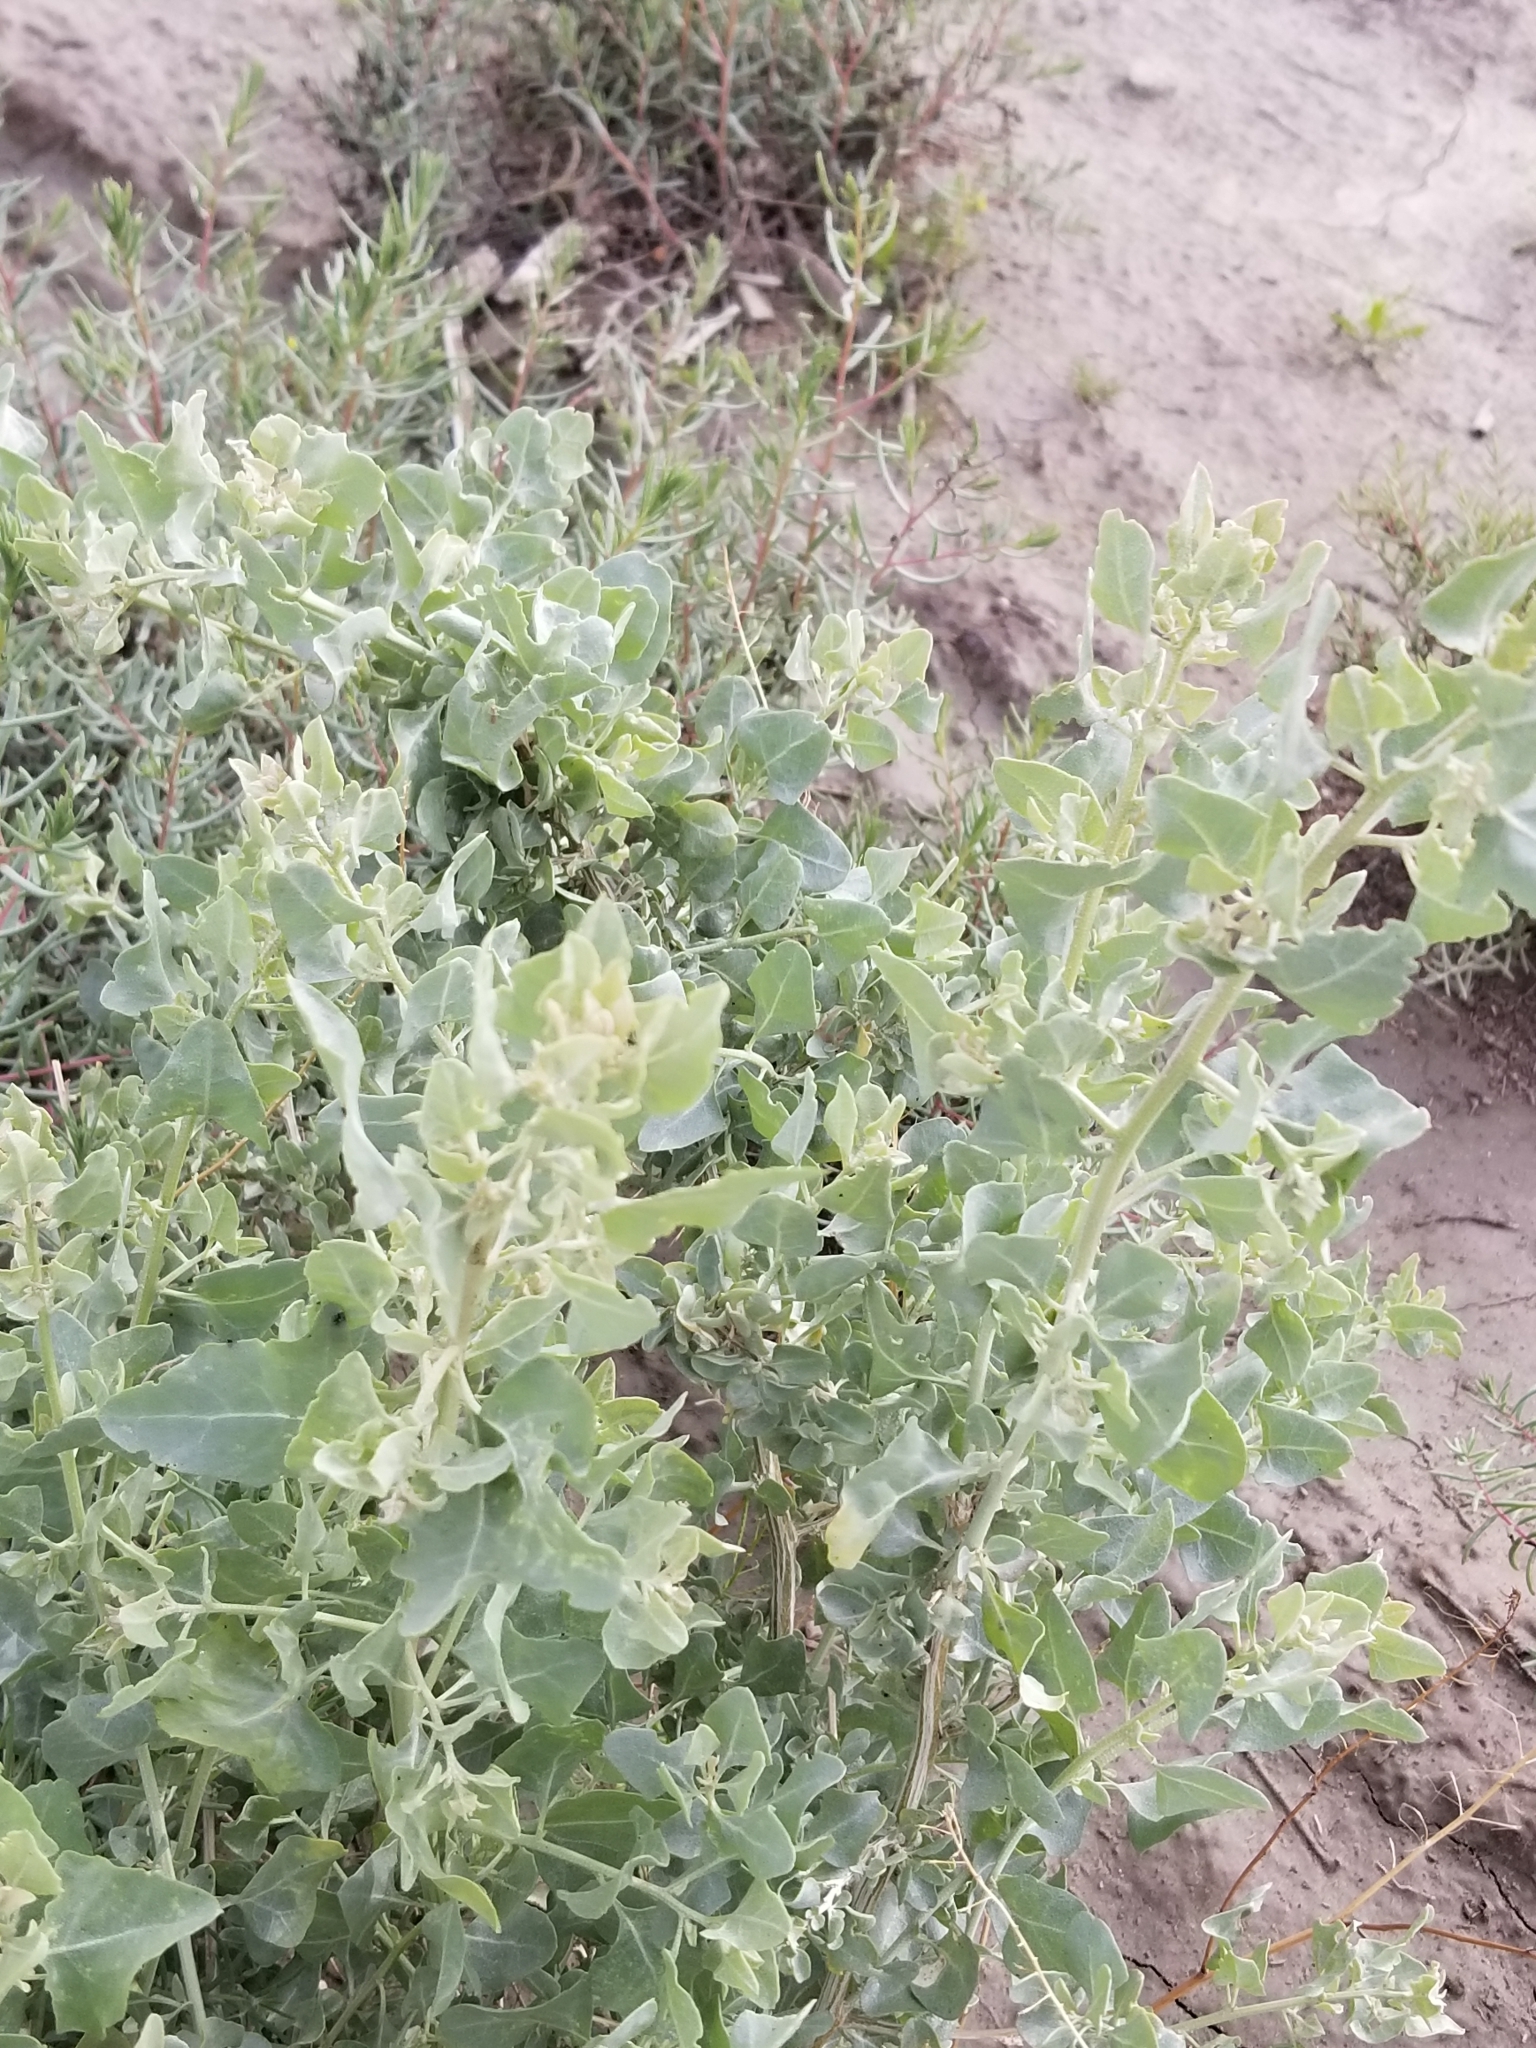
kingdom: Plantae
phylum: Tracheophyta
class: Magnoliopsida
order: Caryophyllales
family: Amaranthaceae
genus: Atriplex
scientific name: Atriplex lentiformis
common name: Big saltbush
